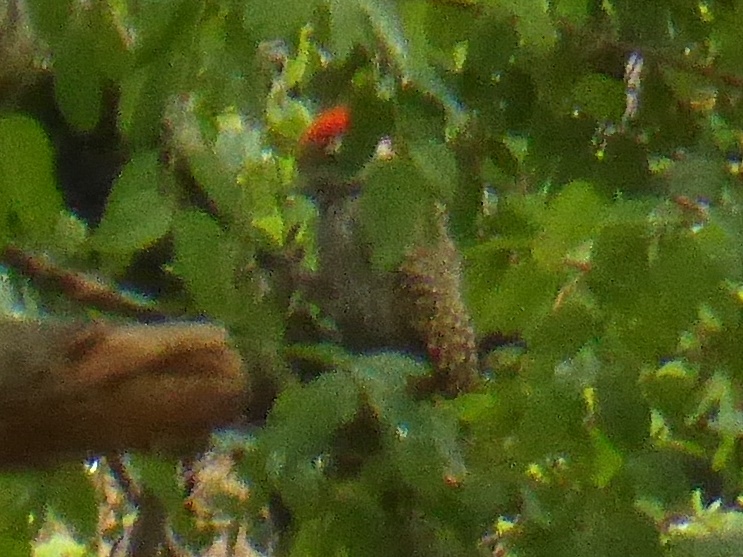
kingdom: Animalia
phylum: Chordata
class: Aves
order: Piciformes
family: Picidae
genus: Dendropicos
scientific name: Dendropicos fuscescens
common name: Cardinal woodpecker
